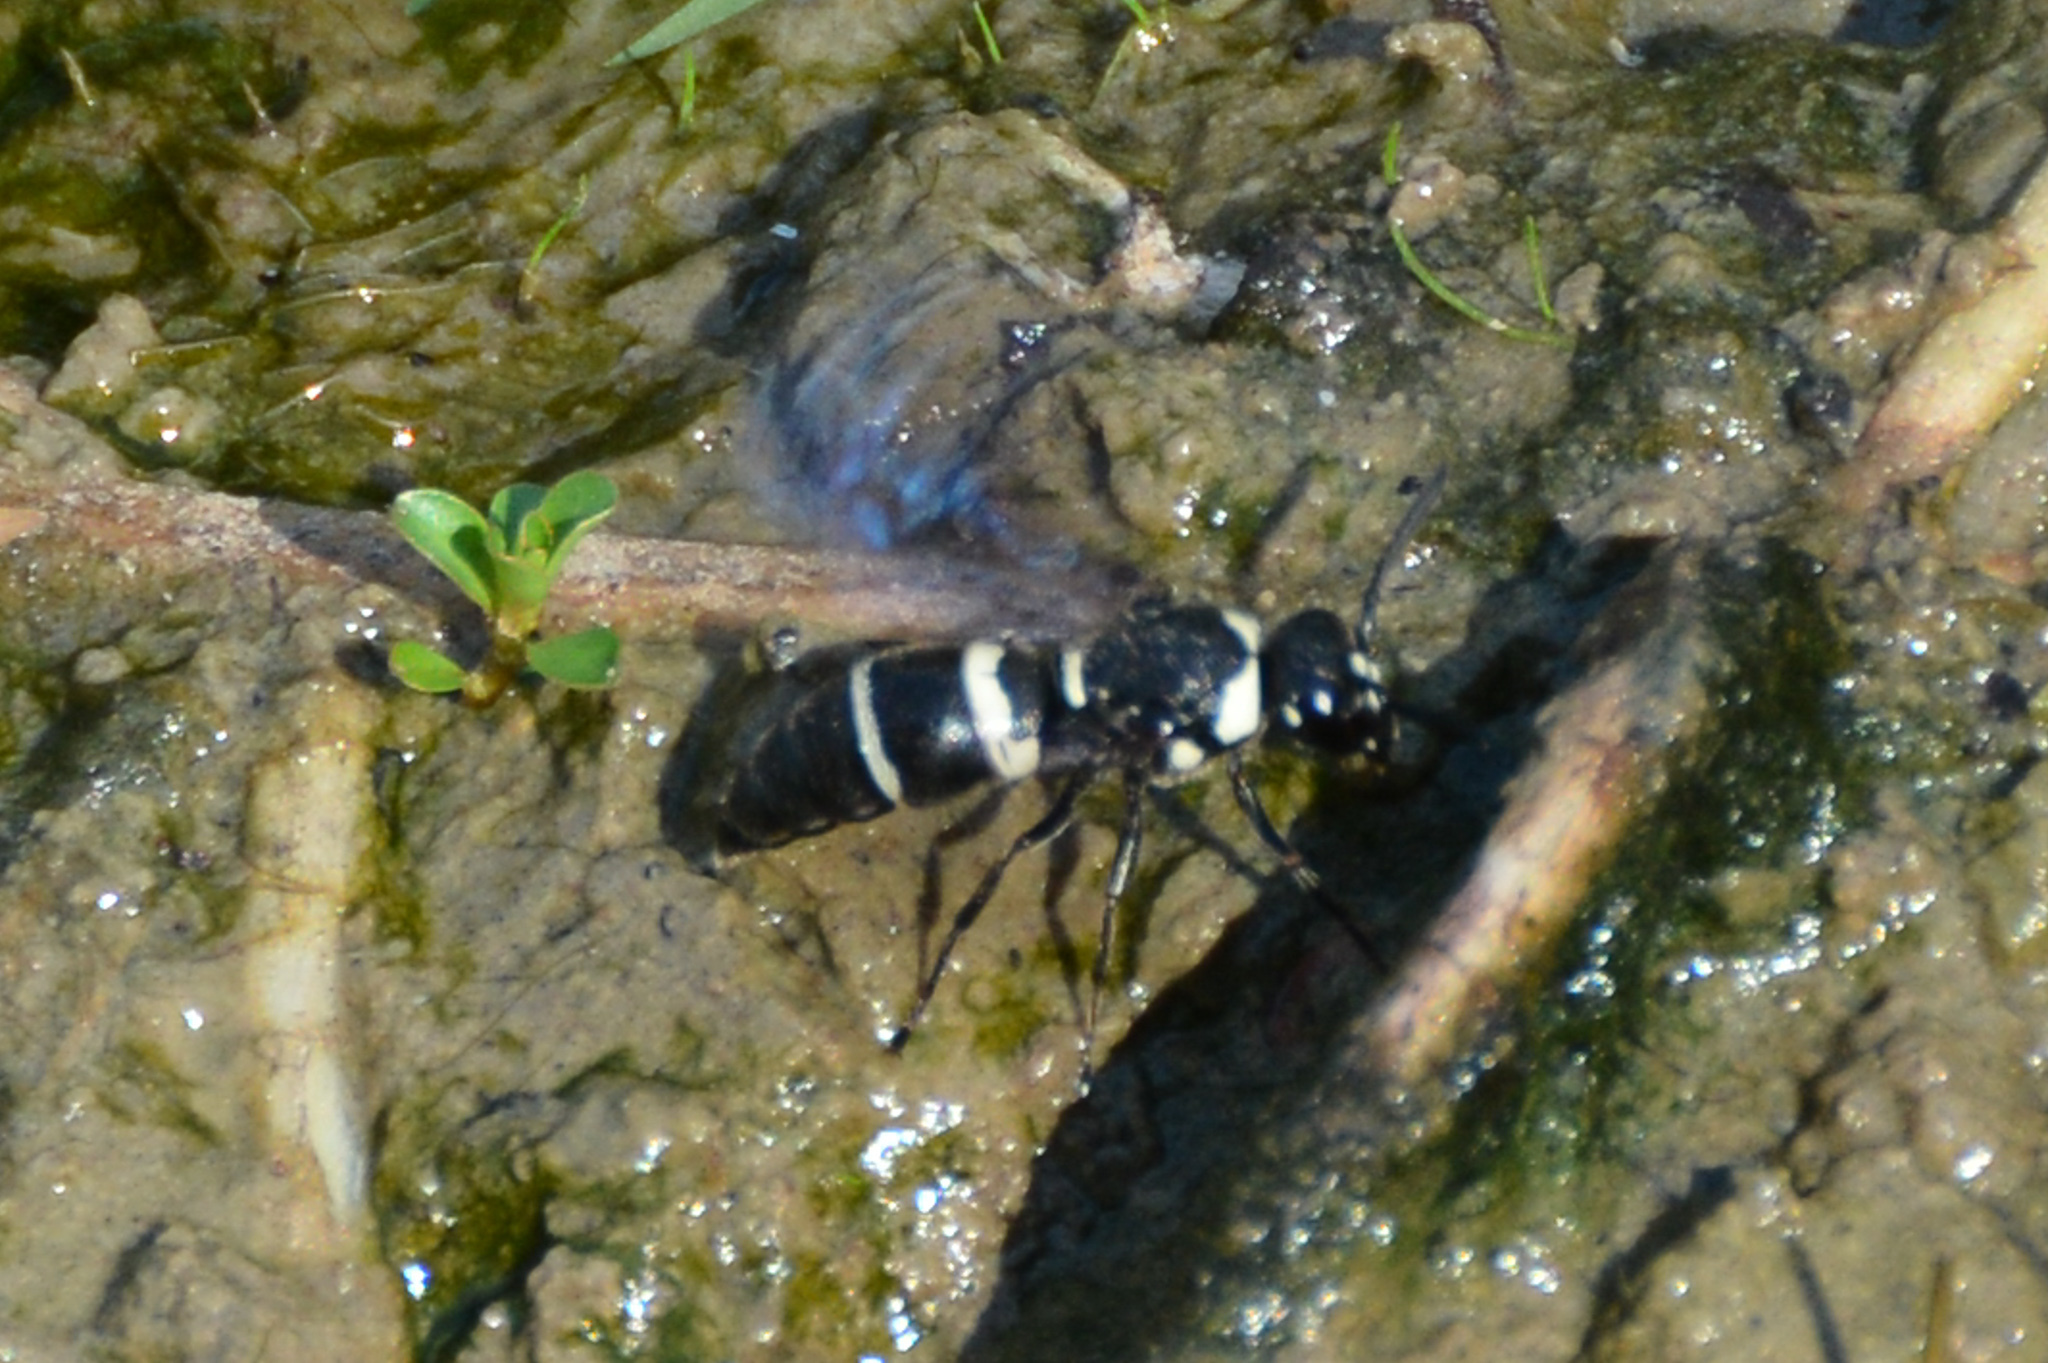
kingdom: Animalia
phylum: Arthropoda
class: Insecta
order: Hymenoptera
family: Eumenidae
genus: Euodynerus
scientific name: Euodynerus
